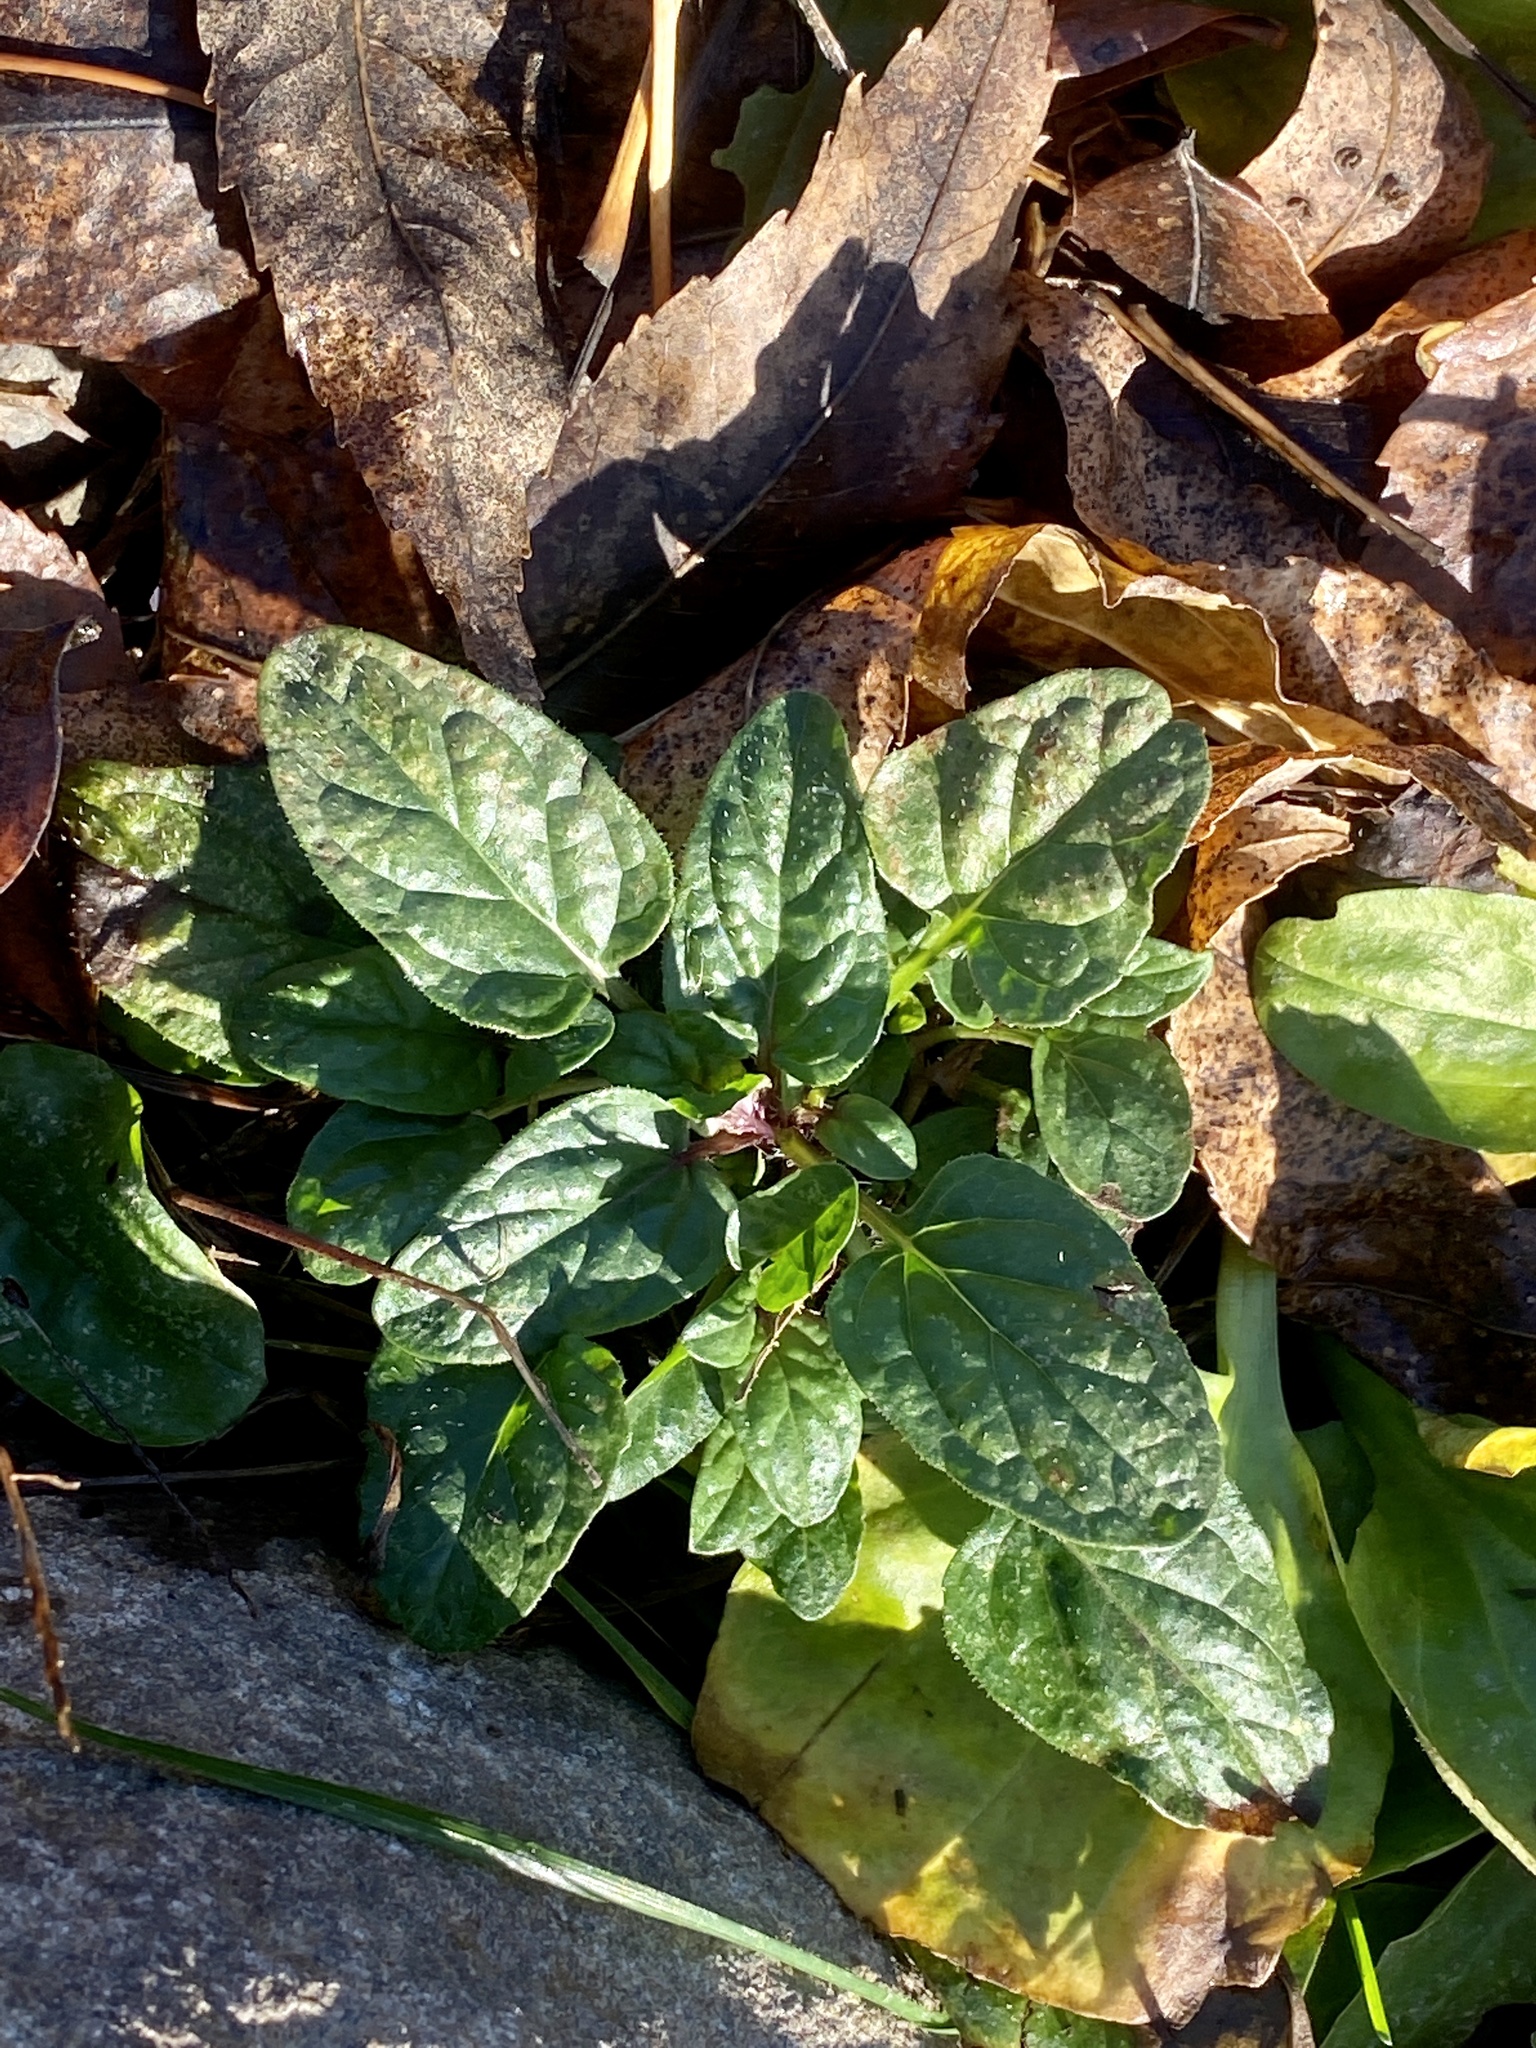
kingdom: Plantae
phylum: Tracheophyta
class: Magnoliopsida
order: Lamiales
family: Lamiaceae
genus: Prunella
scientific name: Prunella vulgaris
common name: Heal-all
